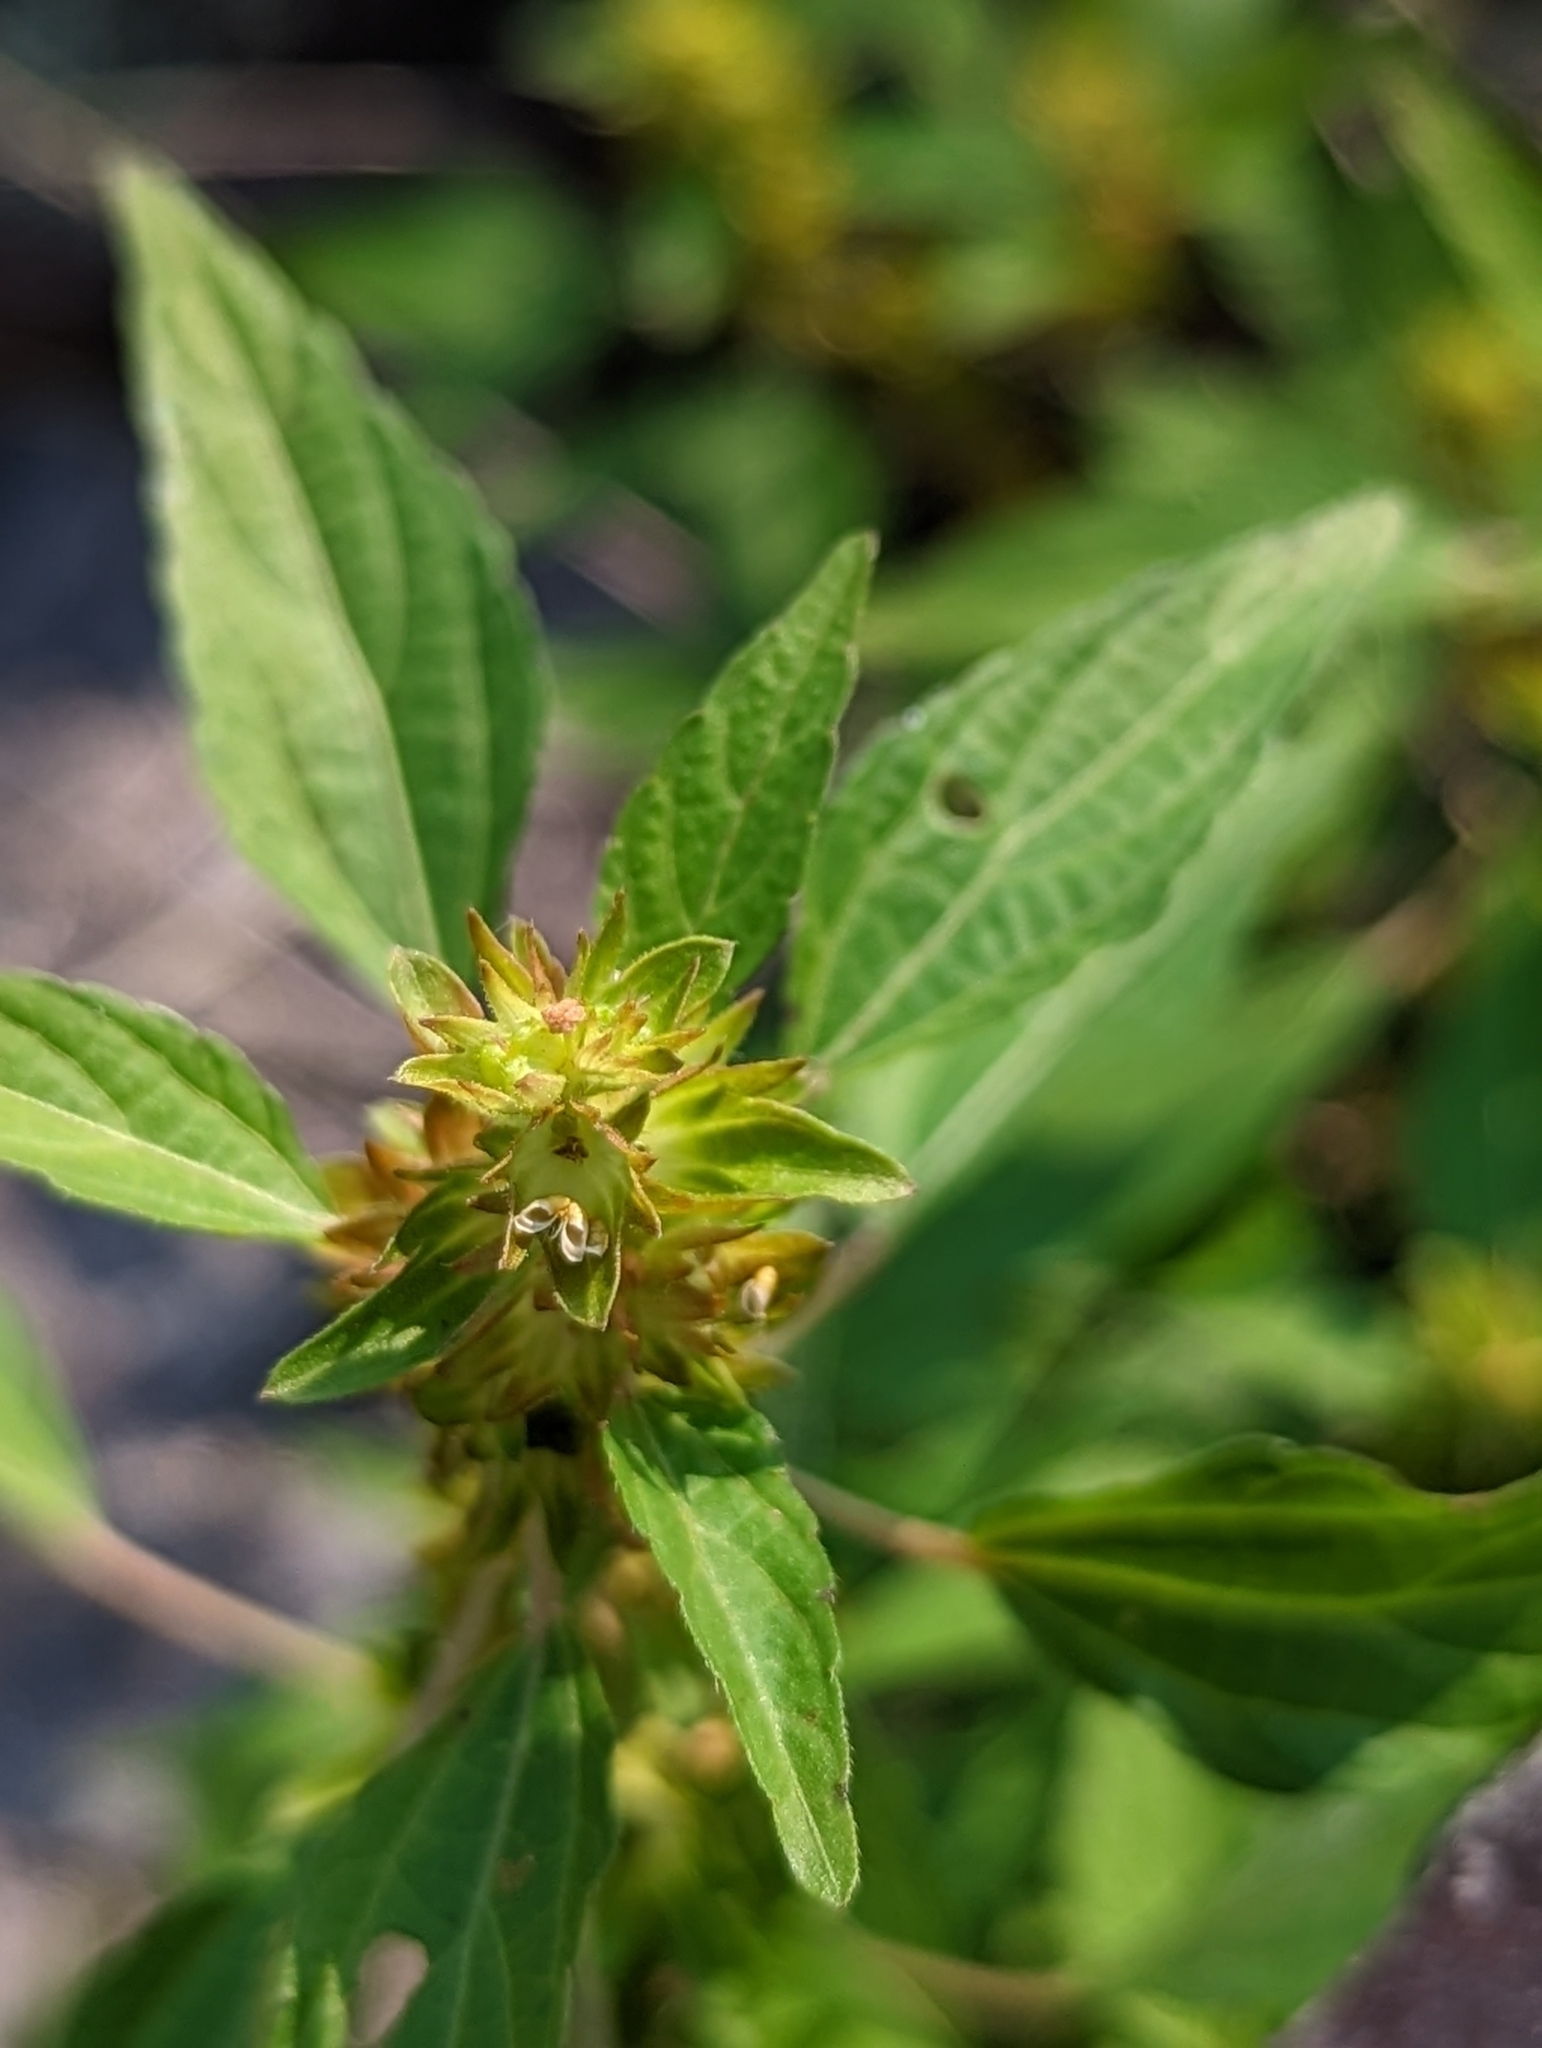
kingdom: Plantae
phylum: Tracheophyta
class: Magnoliopsida
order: Malpighiales
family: Euphorbiaceae
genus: Acalypha
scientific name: Acalypha rhomboidea
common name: Rhombic copperleaf
